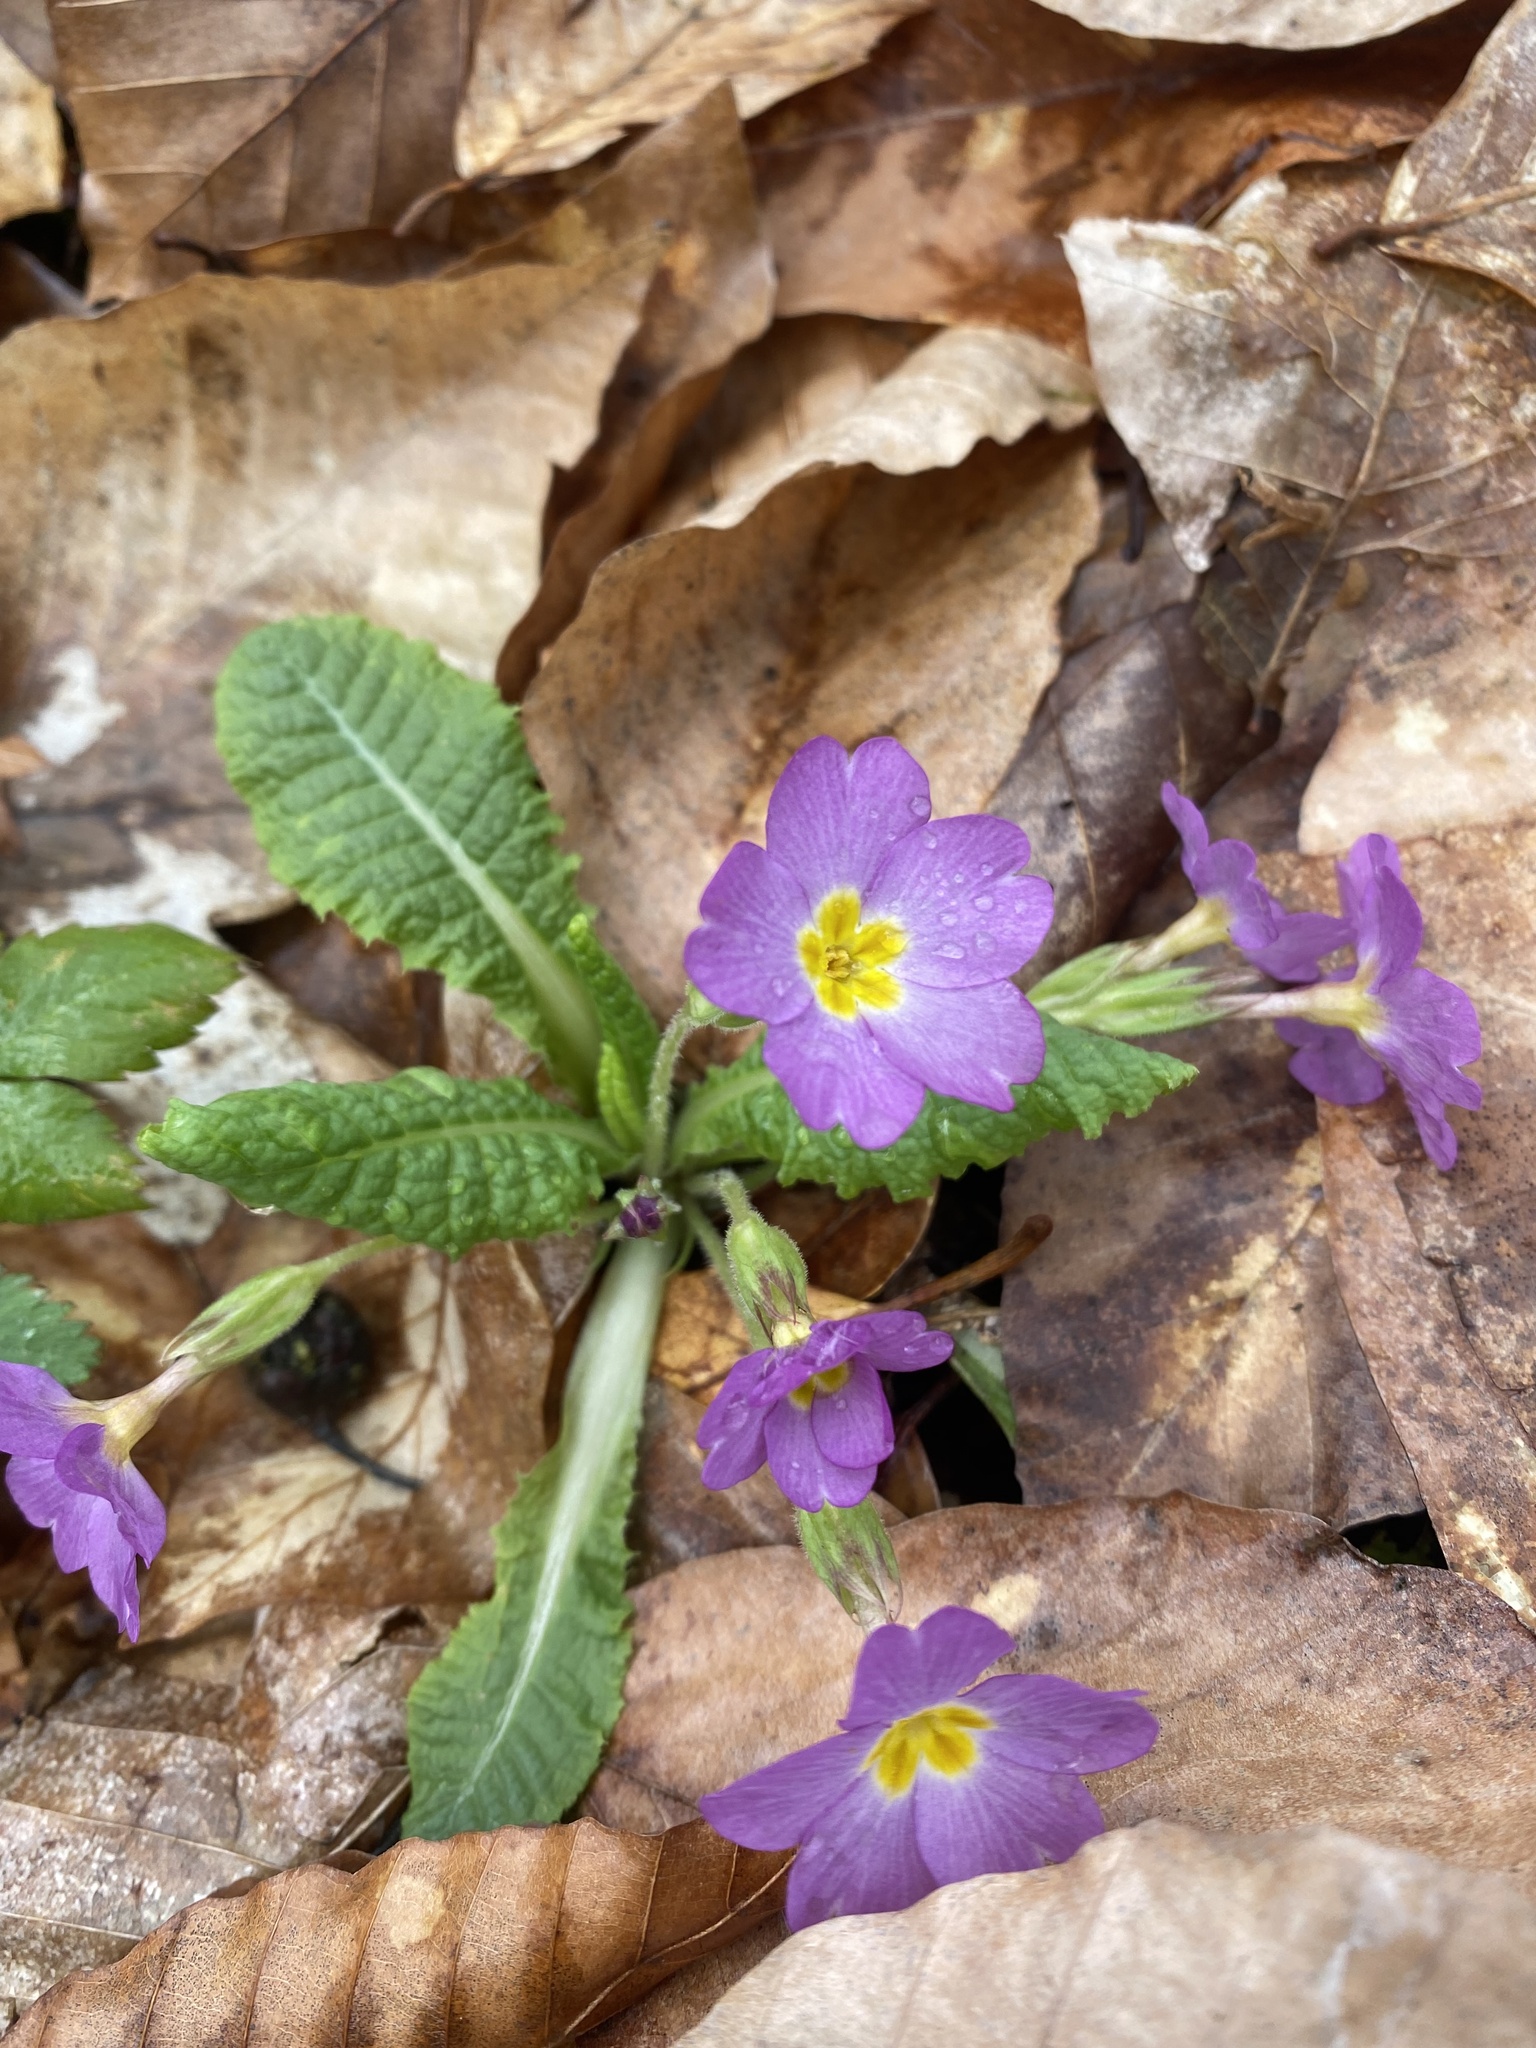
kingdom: Plantae
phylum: Tracheophyta
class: Magnoliopsida
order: Ericales
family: Primulaceae
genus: Primula
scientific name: Primula vulgaris
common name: Primrose
